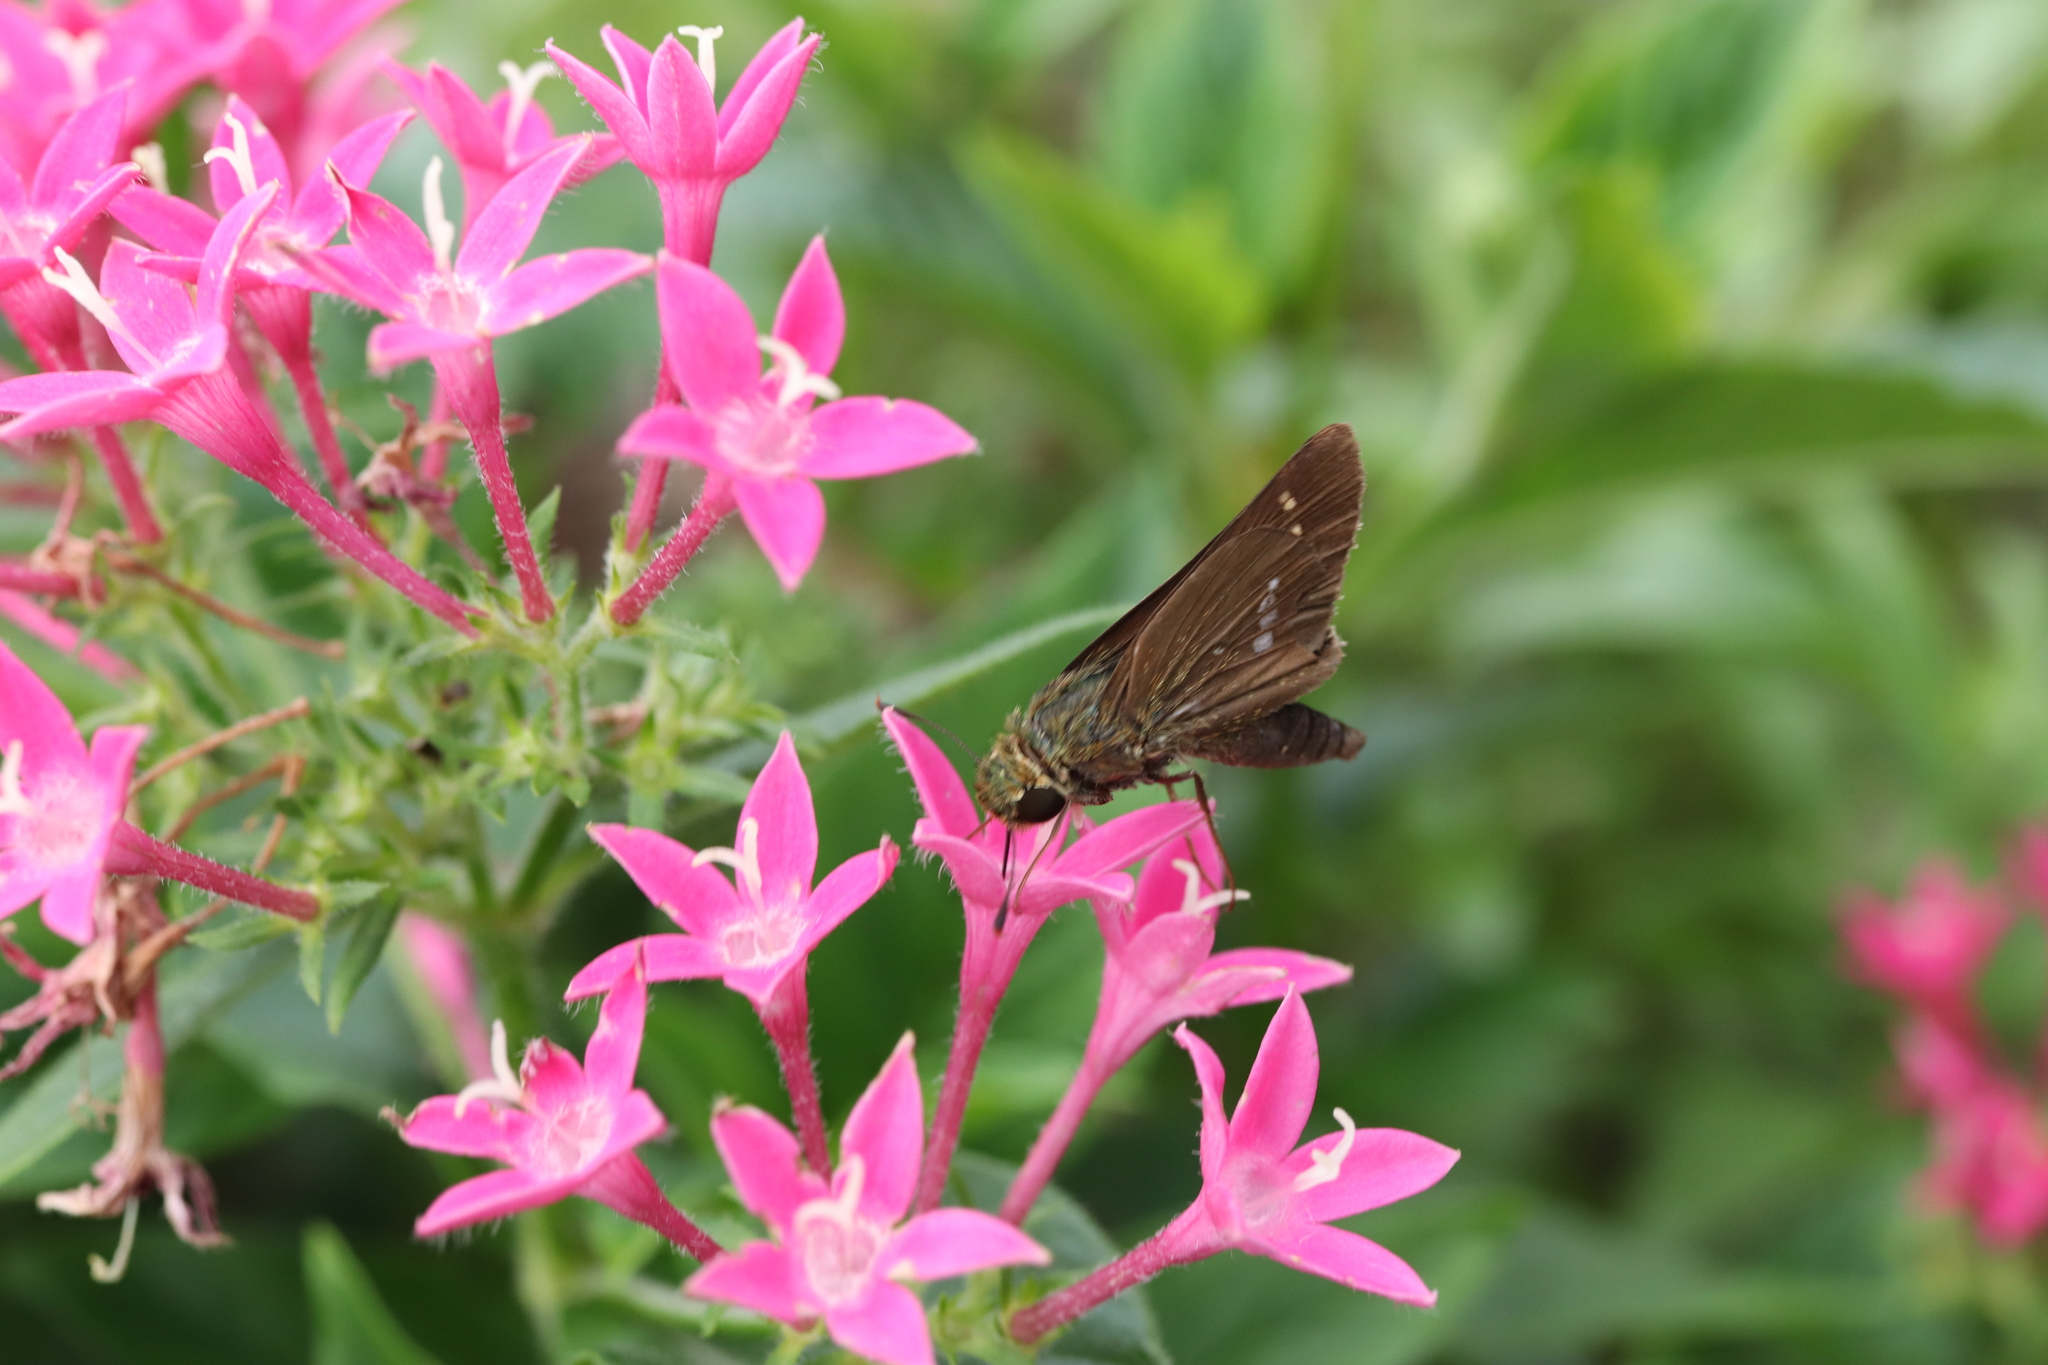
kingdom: Animalia
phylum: Arthropoda
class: Insecta
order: Lepidoptera
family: Hesperiidae
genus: Parnara
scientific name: Parnara guttatus
